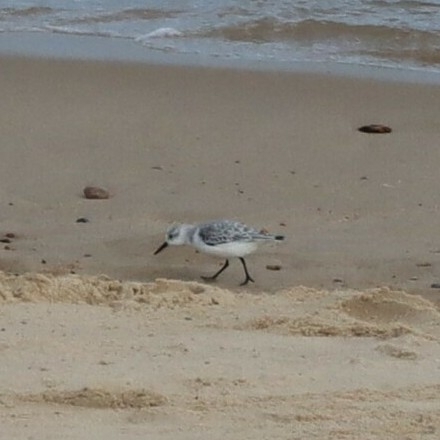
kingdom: Animalia
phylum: Chordata
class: Aves
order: Charadriiformes
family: Scolopacidae
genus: Calidris
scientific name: Calidris alba
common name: Sanderling
